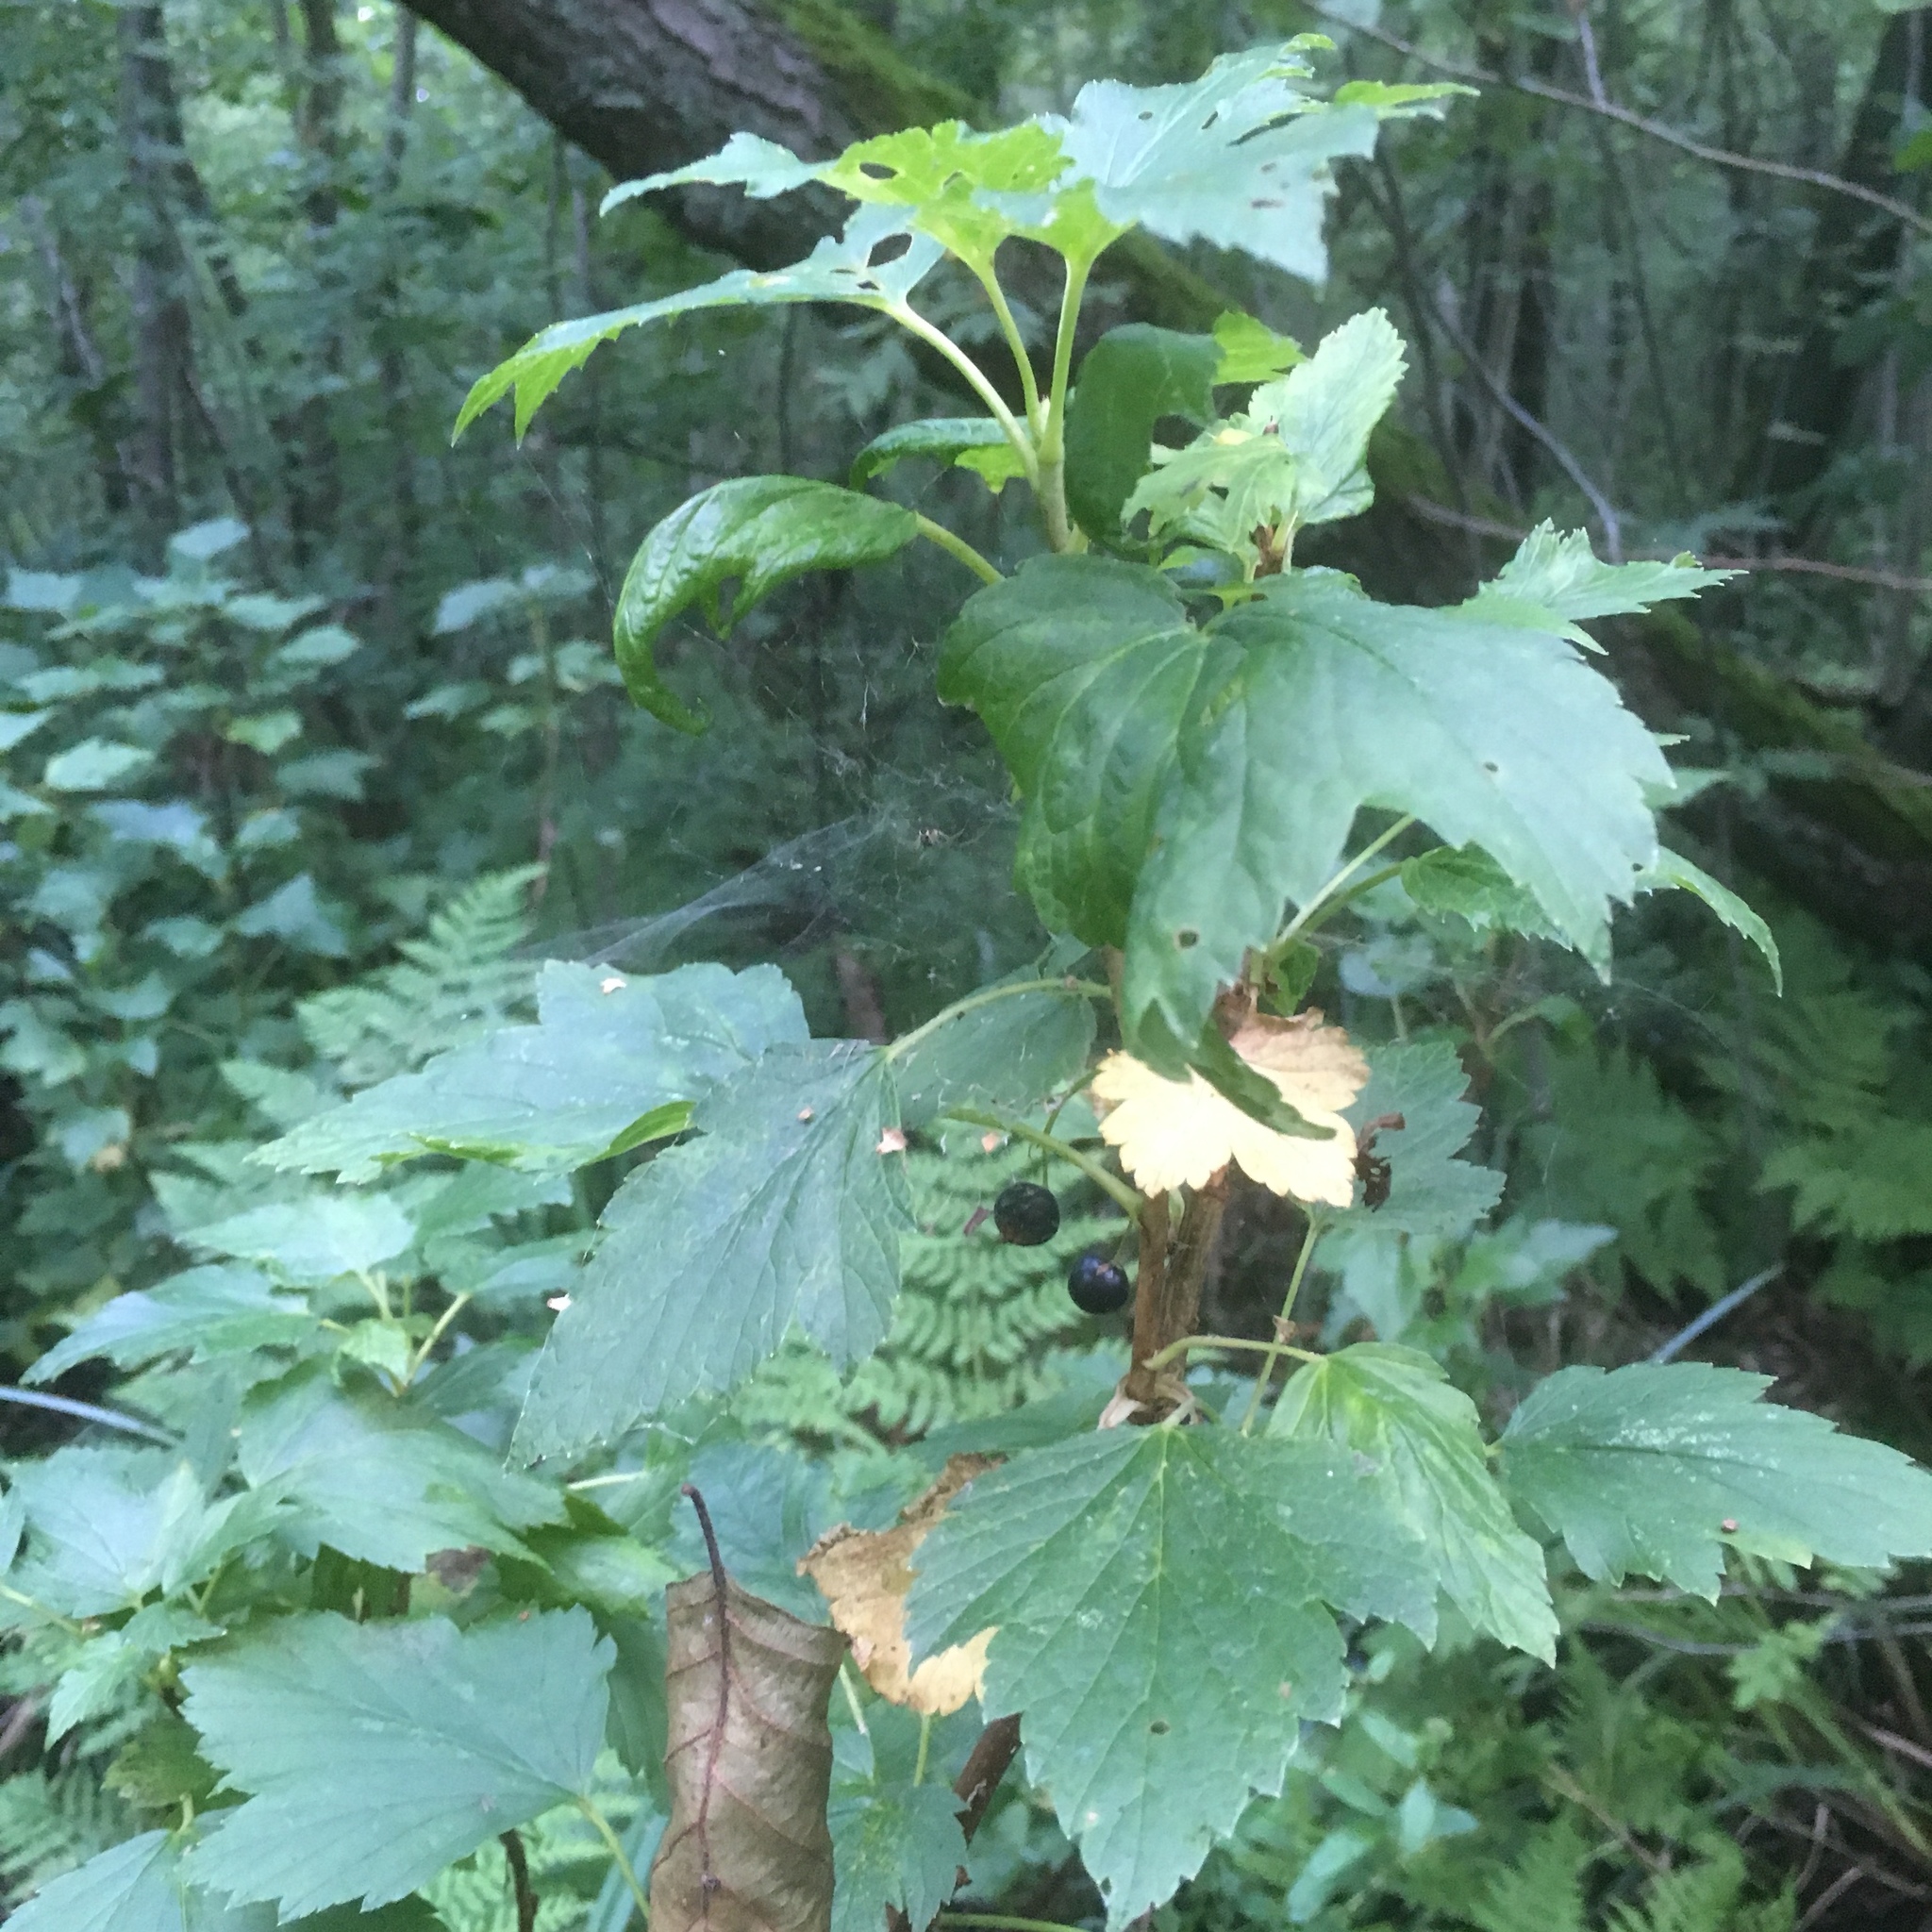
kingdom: Plantae
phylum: Tracheophyta
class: Magnoliopsida
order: Saxifragales
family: Grossulariaceae
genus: Ribes
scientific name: Ribes nigrum
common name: Black currant
